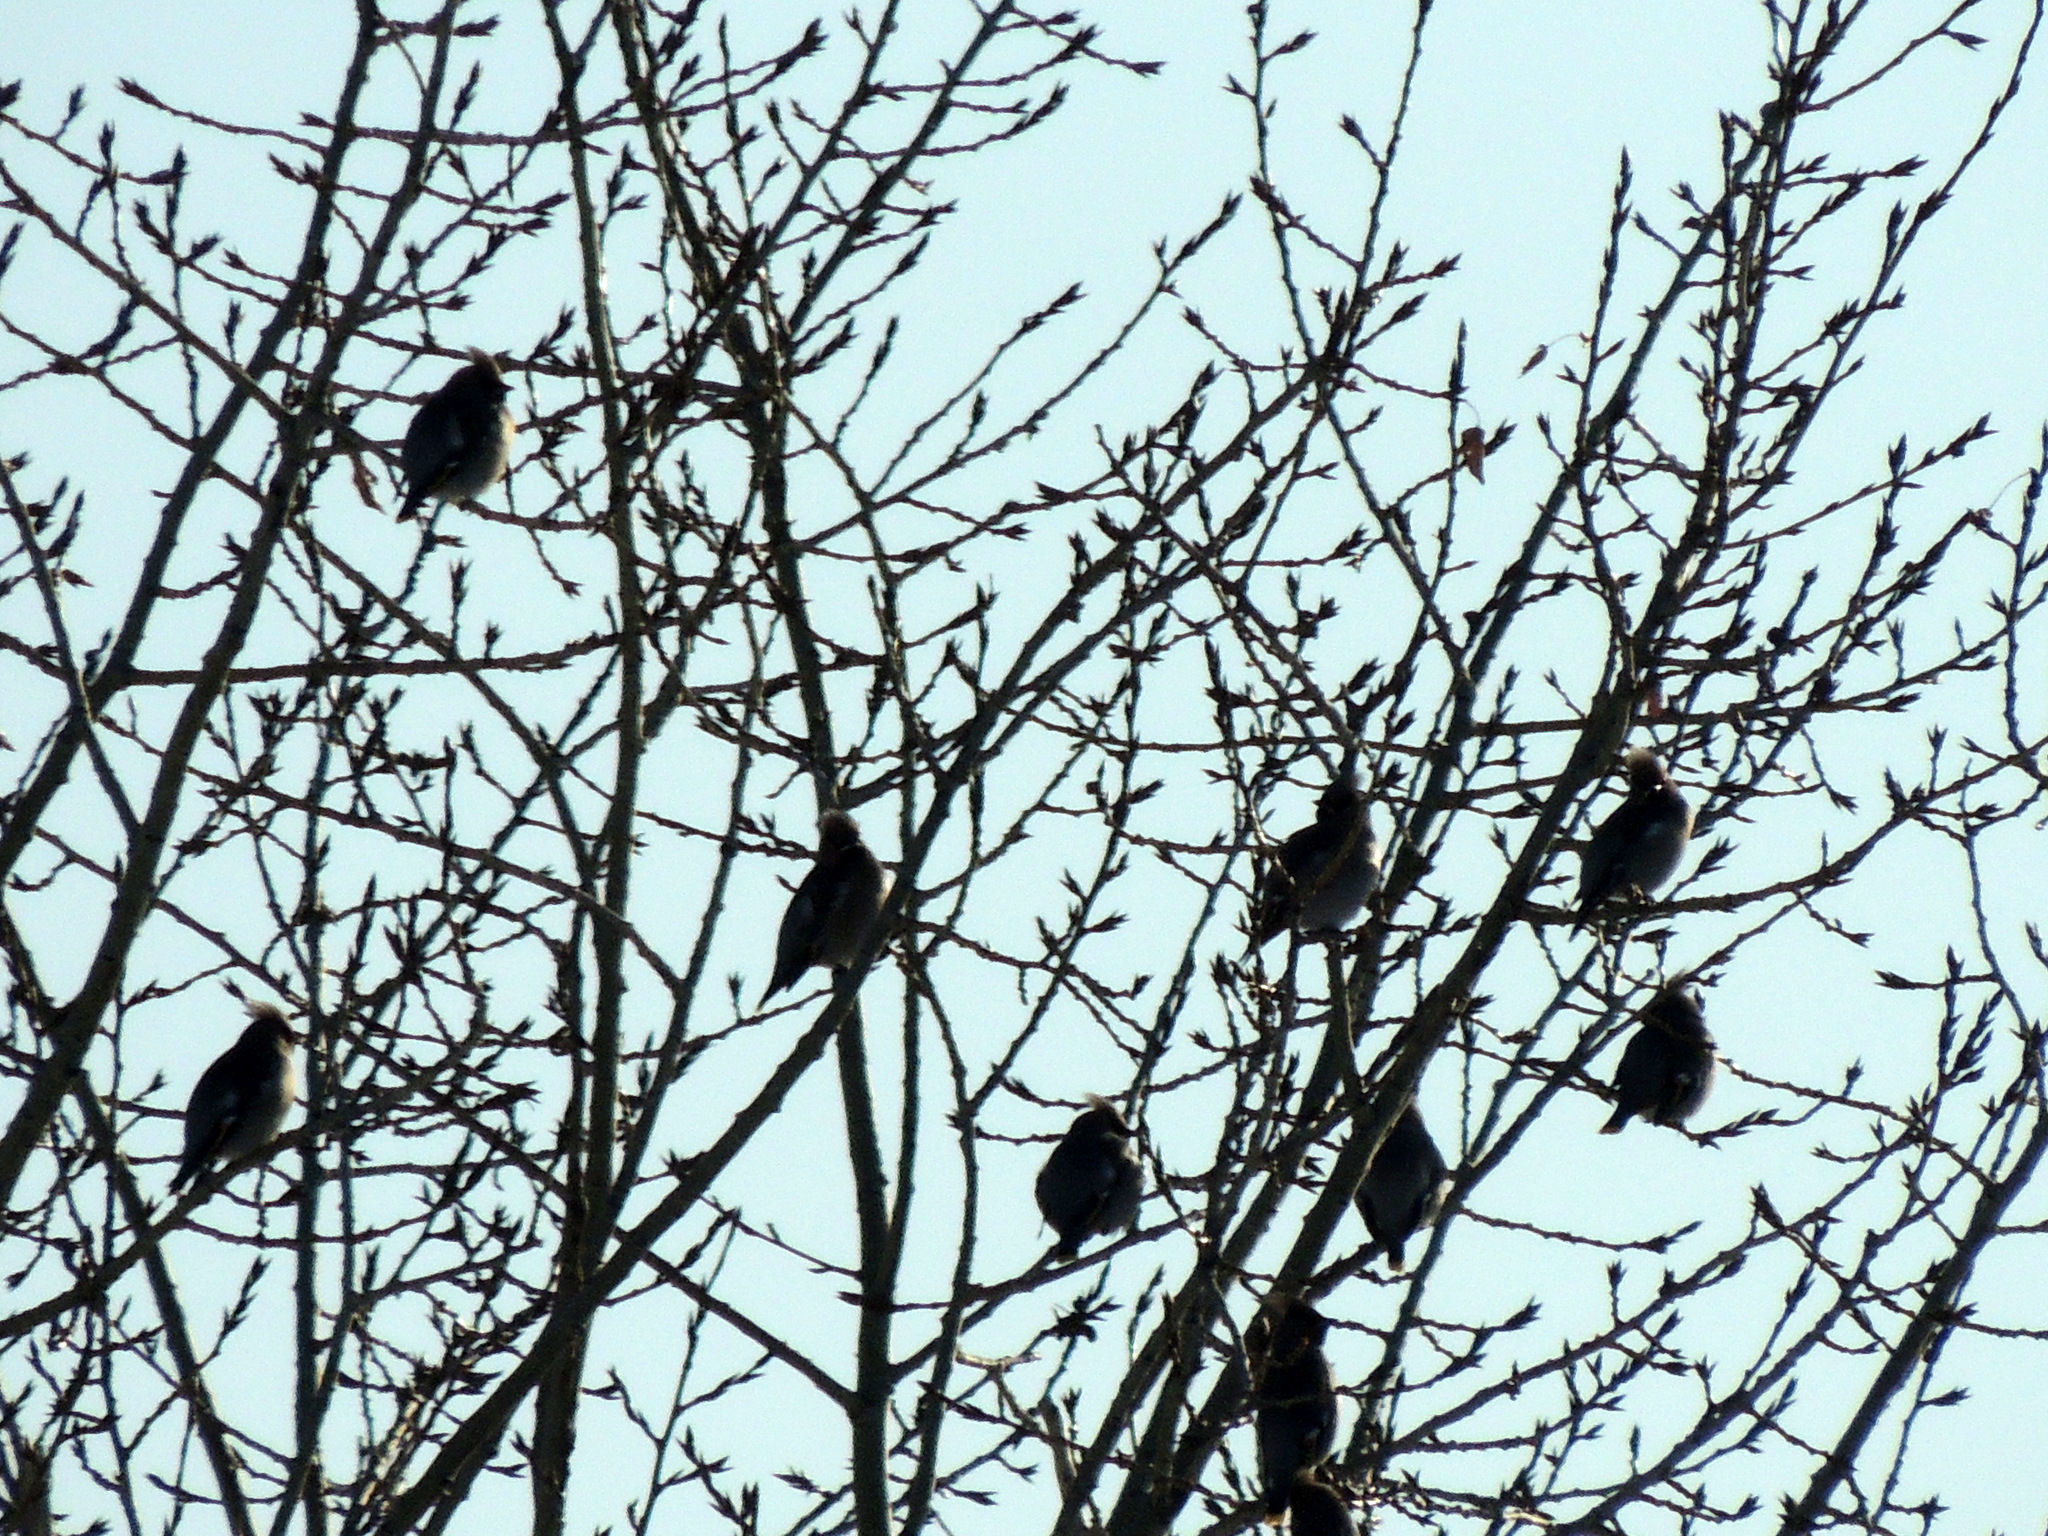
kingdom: Animalia
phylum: Chordata
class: Aves
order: Passeriformes
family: Bombycillidae
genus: Bombycilla
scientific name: Bombycilla garrulus
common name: Bohemian waxwing
